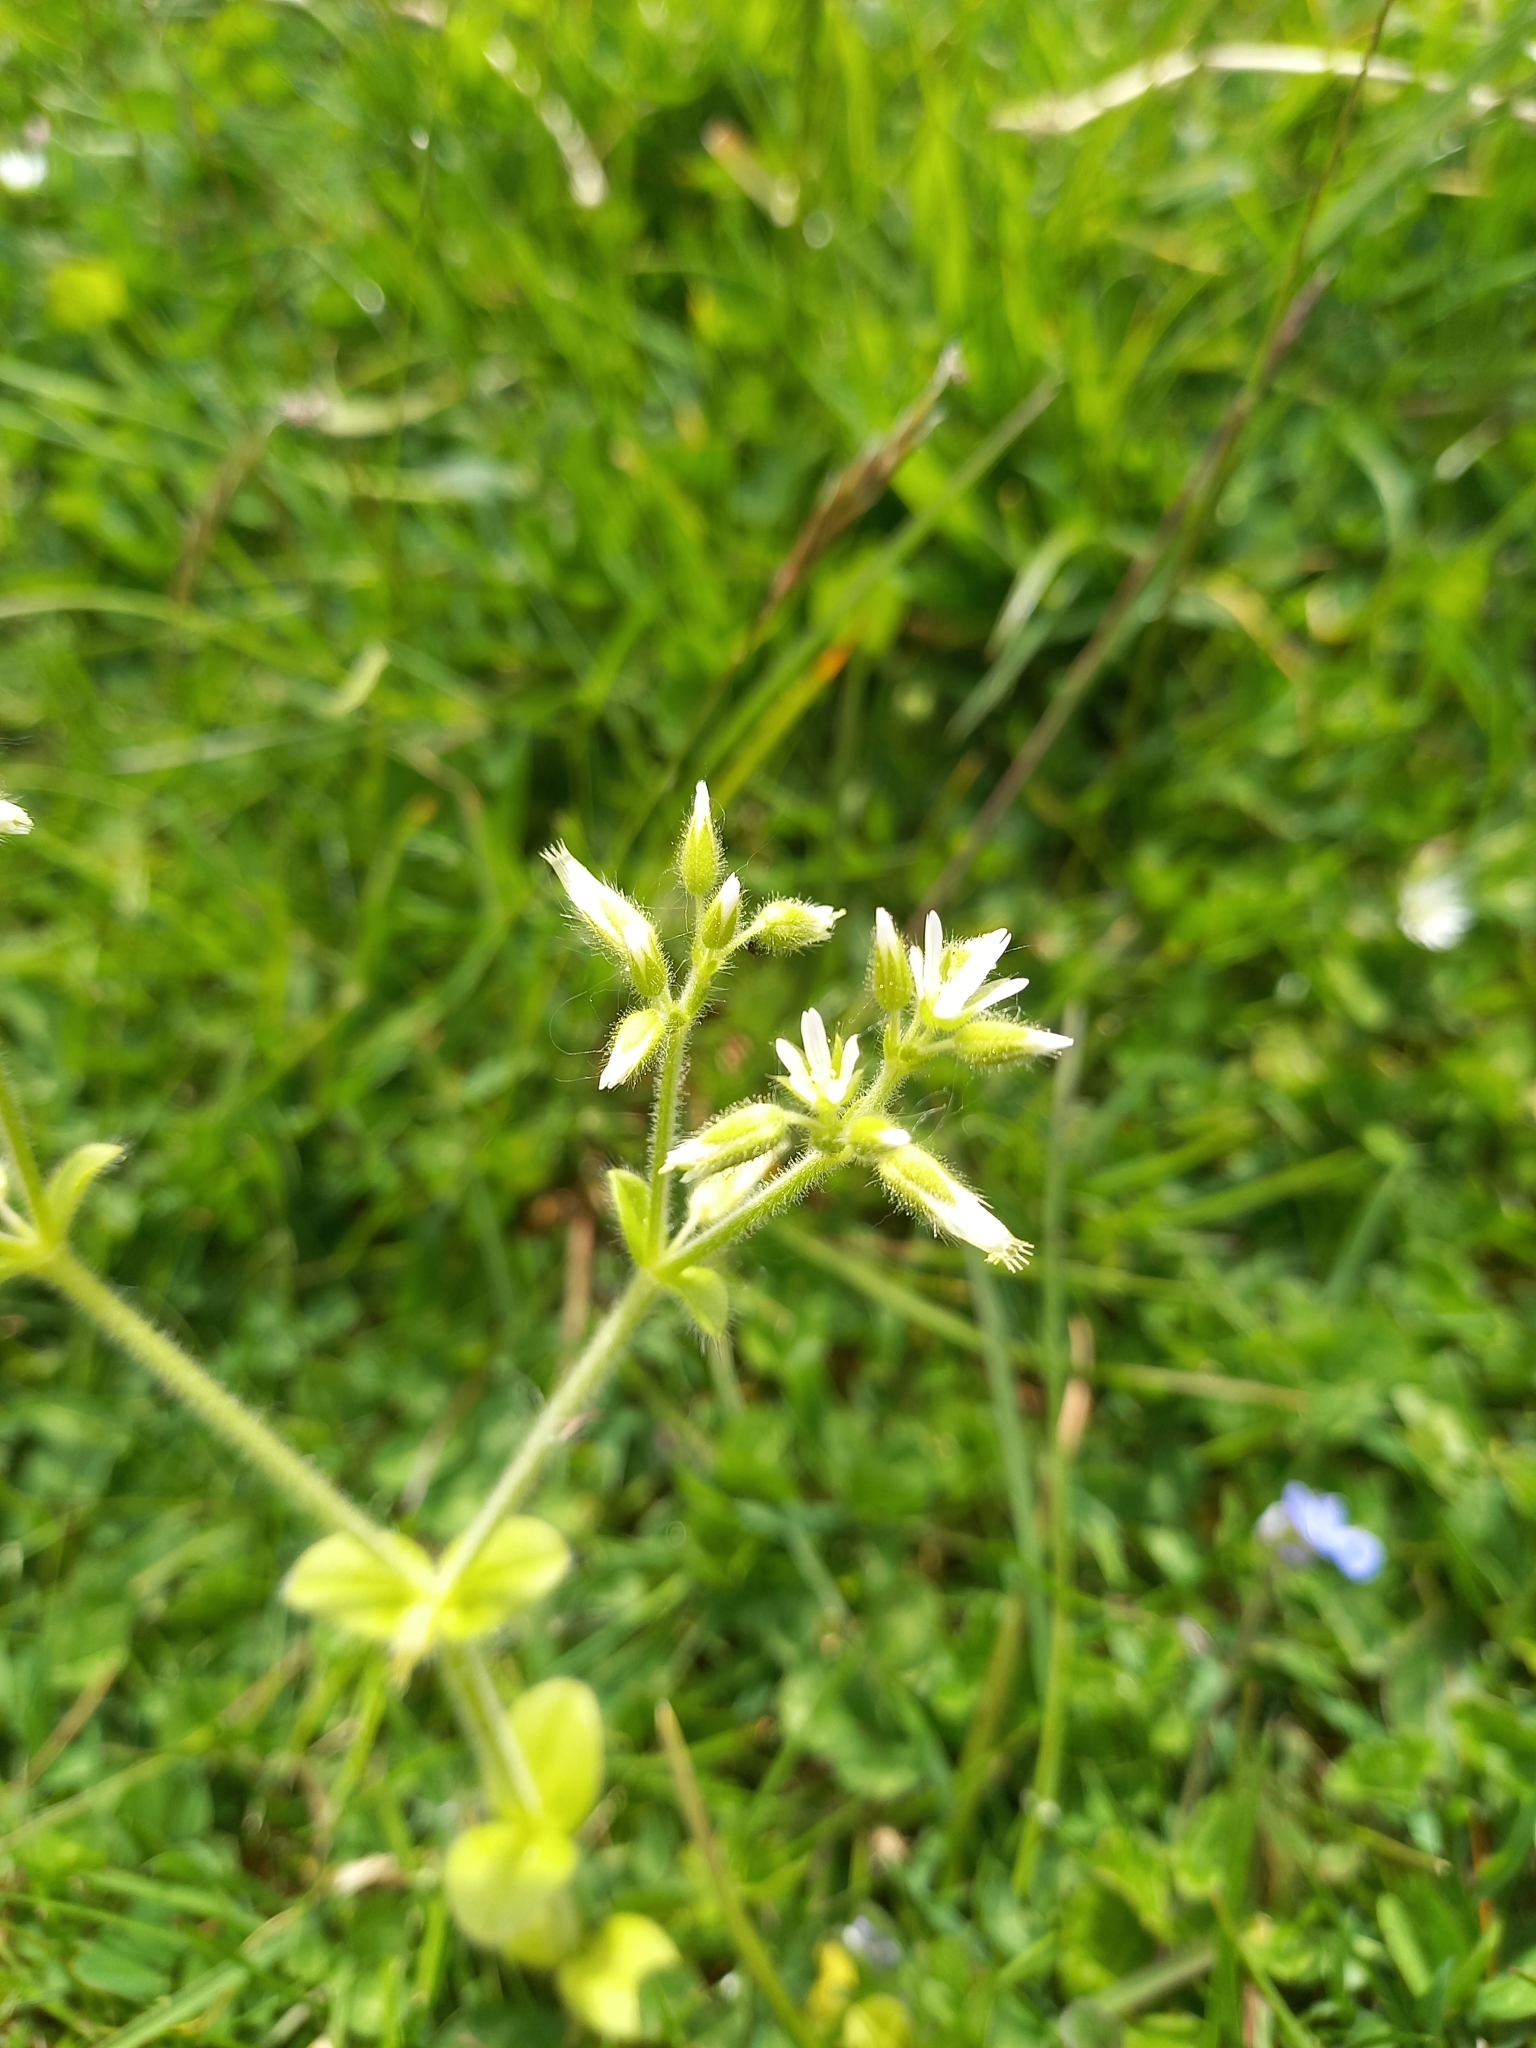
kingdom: Plantae
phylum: Tracheophyta
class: Magnoliopsida
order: Caryophyllales
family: Caryophyllaceae
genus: Cerastium
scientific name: Cerastium glomeratum
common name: Sticky chickweed
